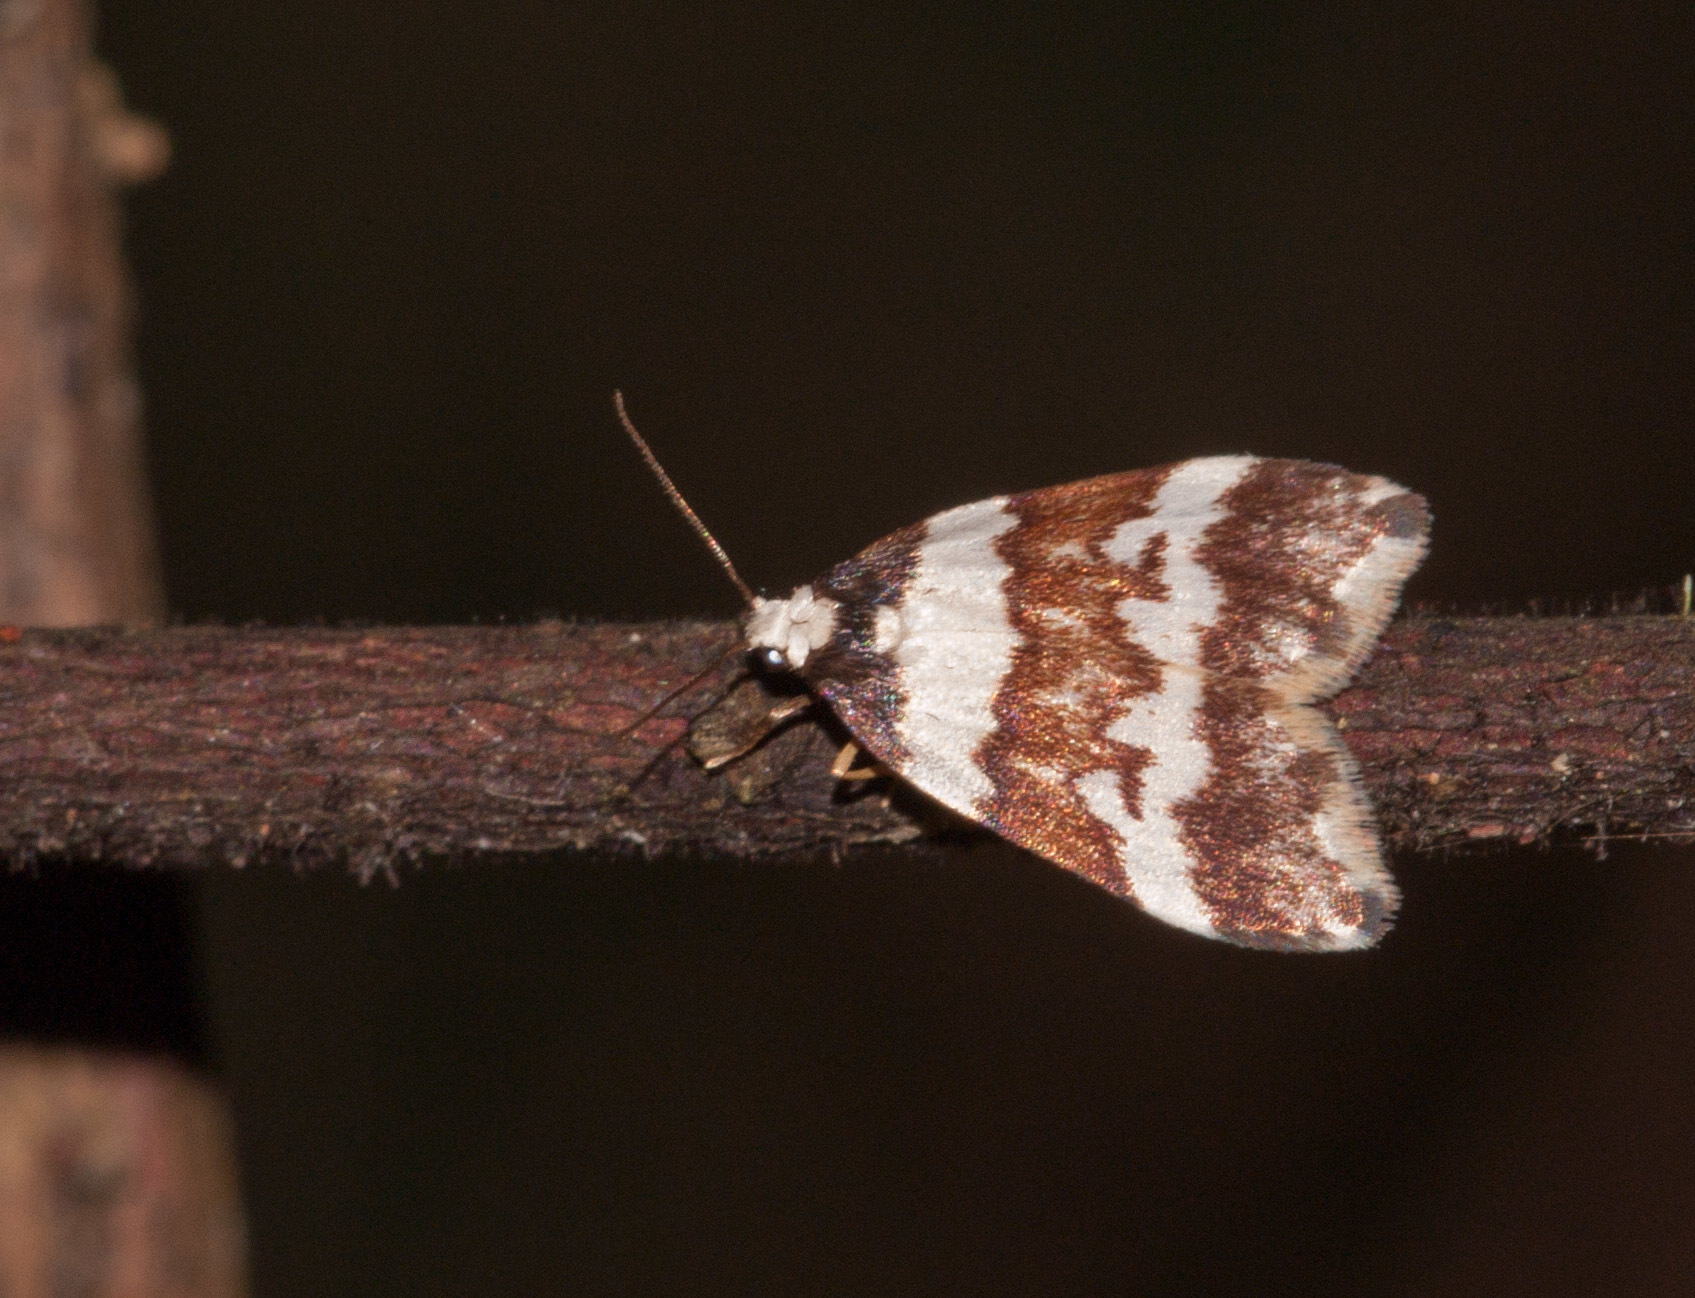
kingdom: Animalia
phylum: Arthropoda
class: Insecta
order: Lepidoptera
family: Erebidae
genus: Halone
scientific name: Halone sejuncta
